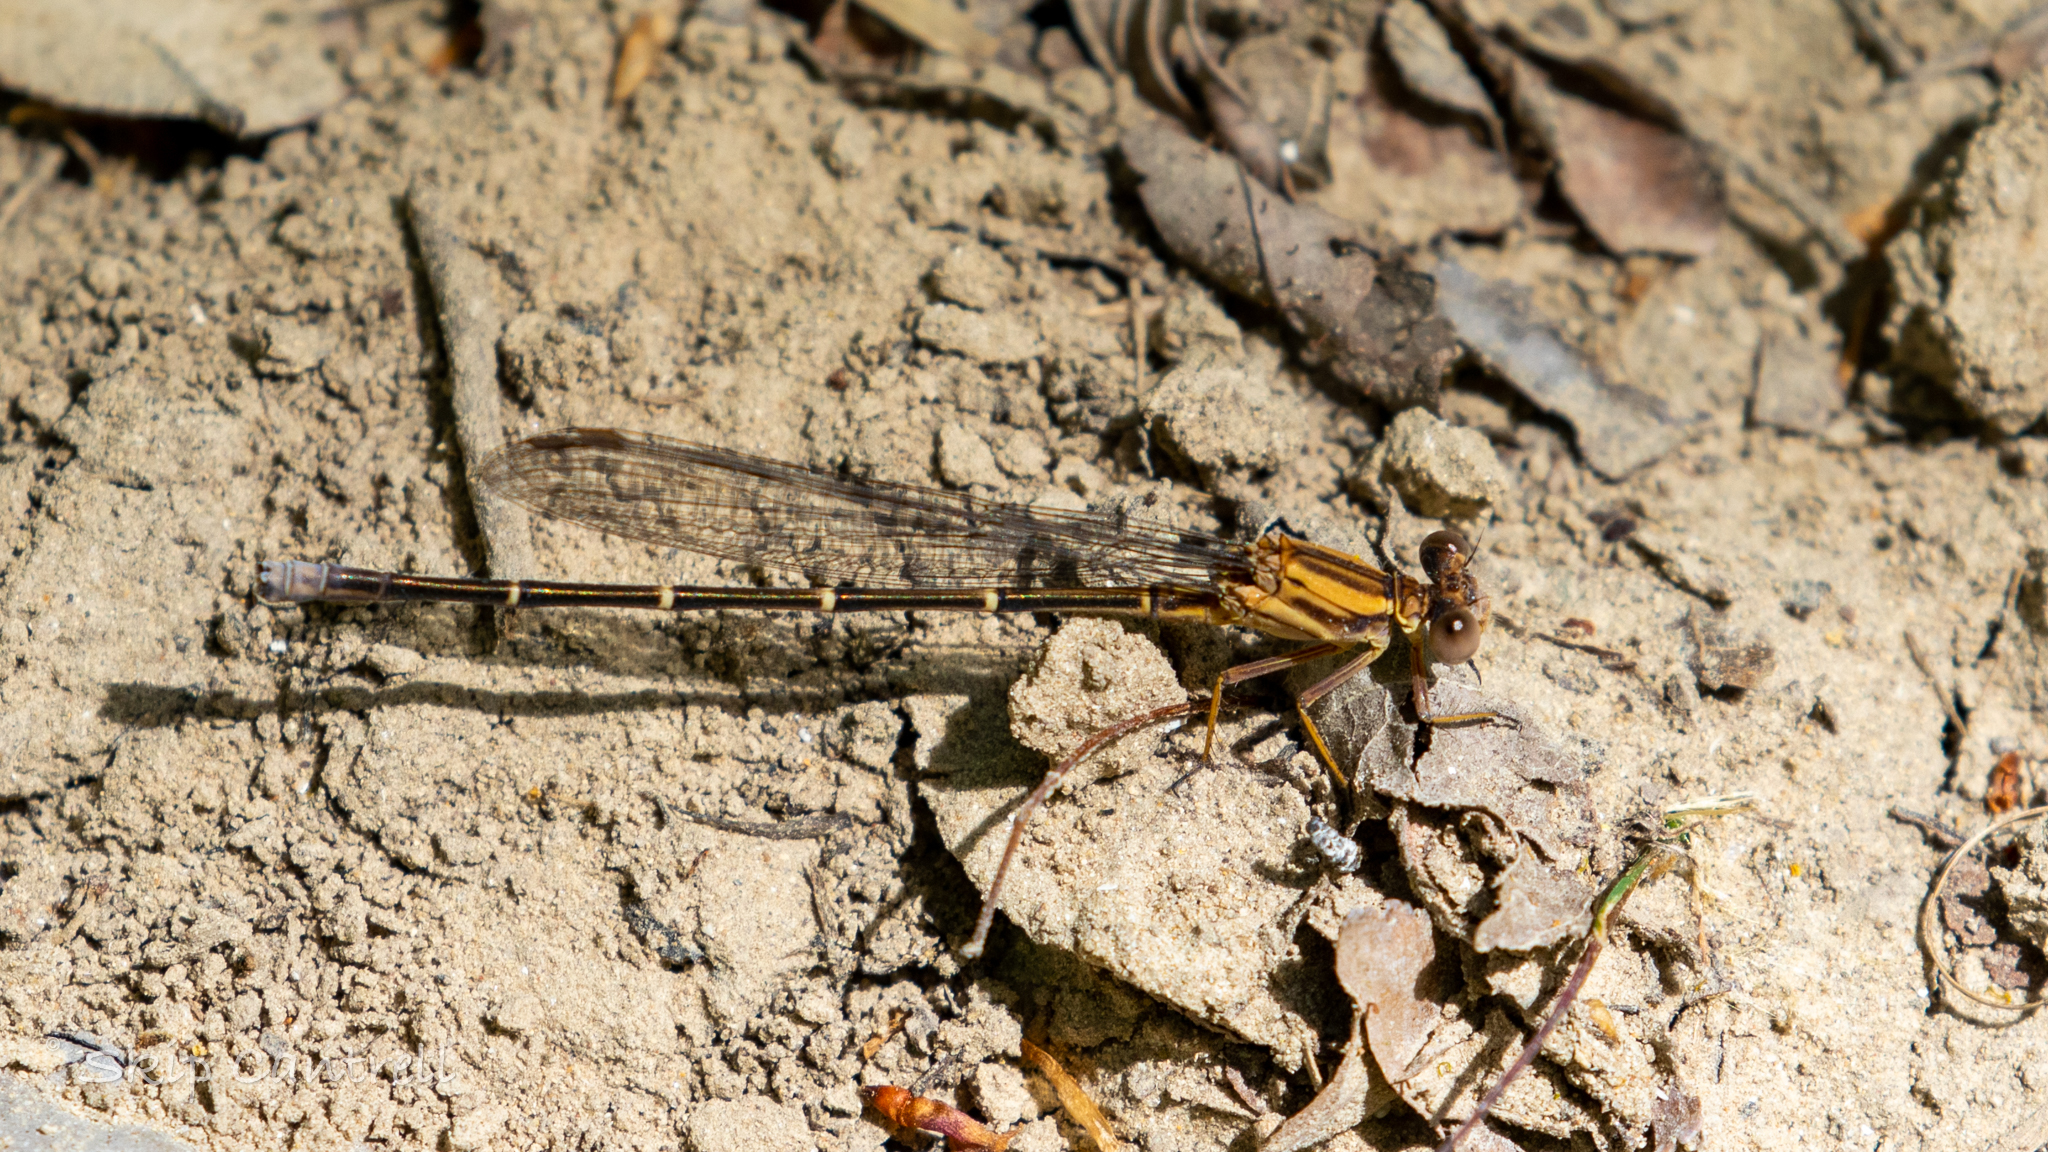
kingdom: Animalia
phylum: Arthropoda
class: Insecta
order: Odonata
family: Coenagrionidae
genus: Argia
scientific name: Argia moesta
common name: Powdered dancer
